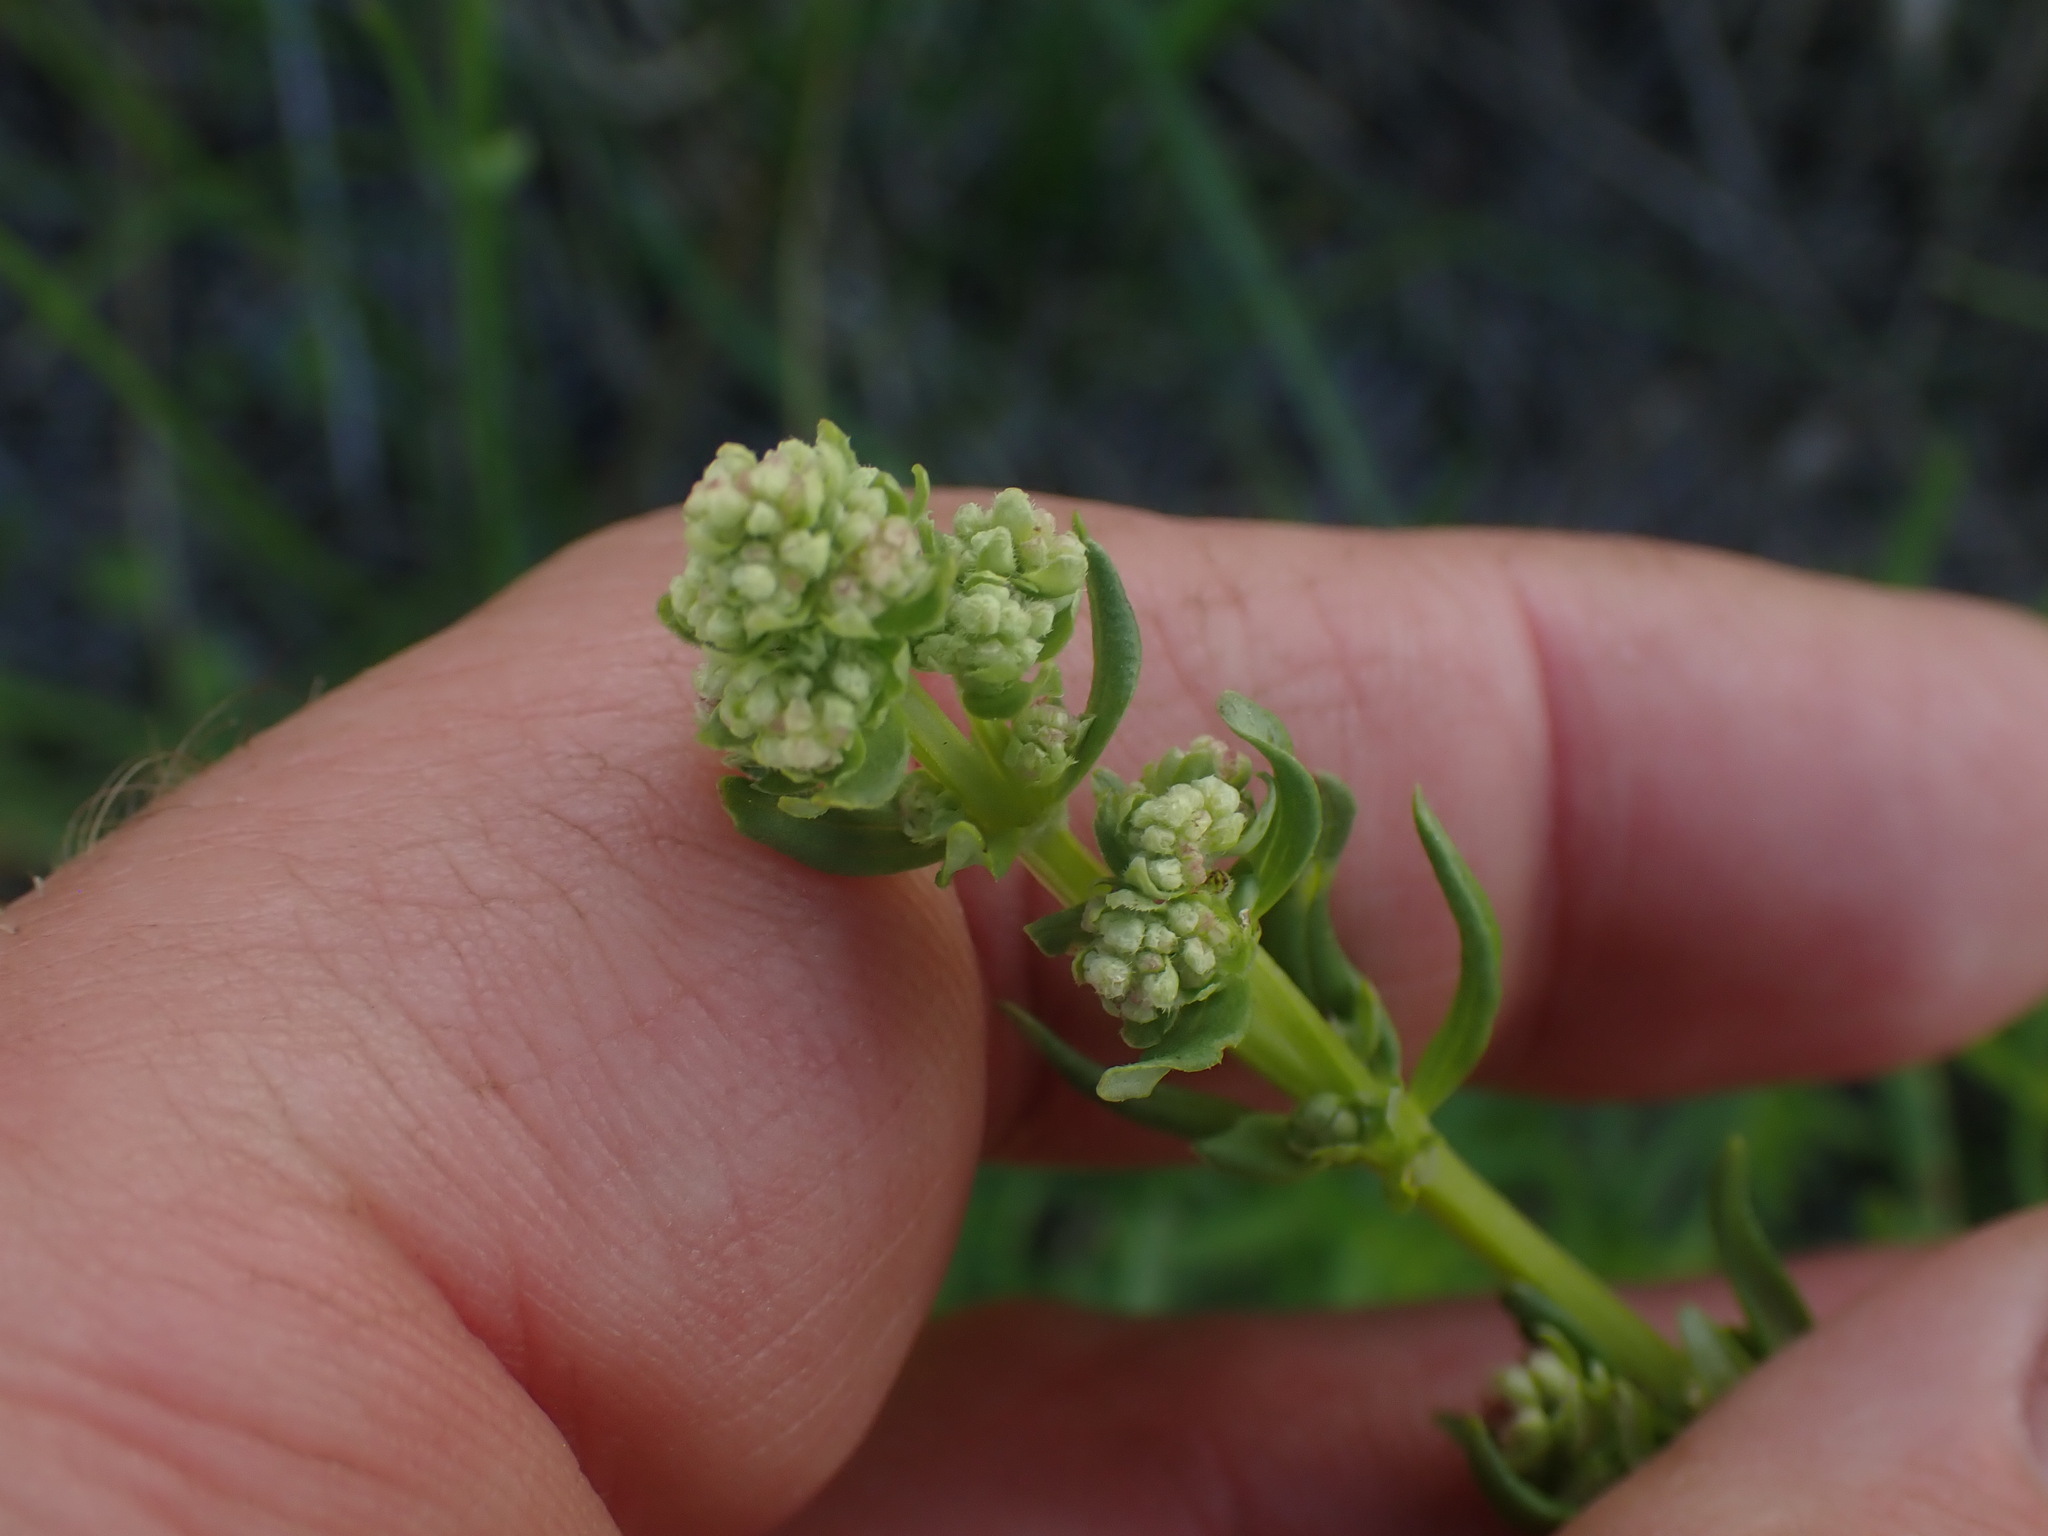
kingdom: Plantae
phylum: Tracheophyta
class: Magnoliopsida
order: Gentianales
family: Rubiaceae
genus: Galium
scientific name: Galium boreale
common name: Northern bedstraw
